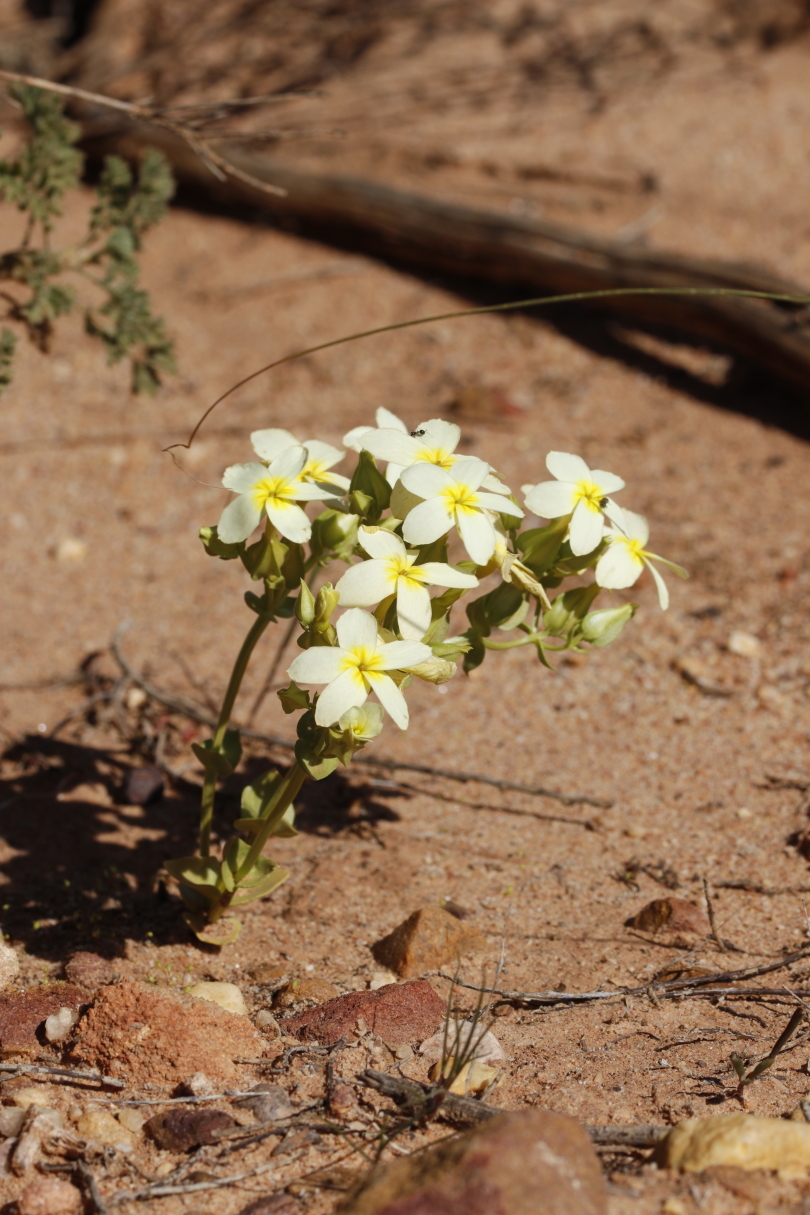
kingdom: Plantae
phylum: Tracheophyta
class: Magnoliopsida
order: Gentianales
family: Gentianaceae
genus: Sebaea
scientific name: Sebaea exacoides
